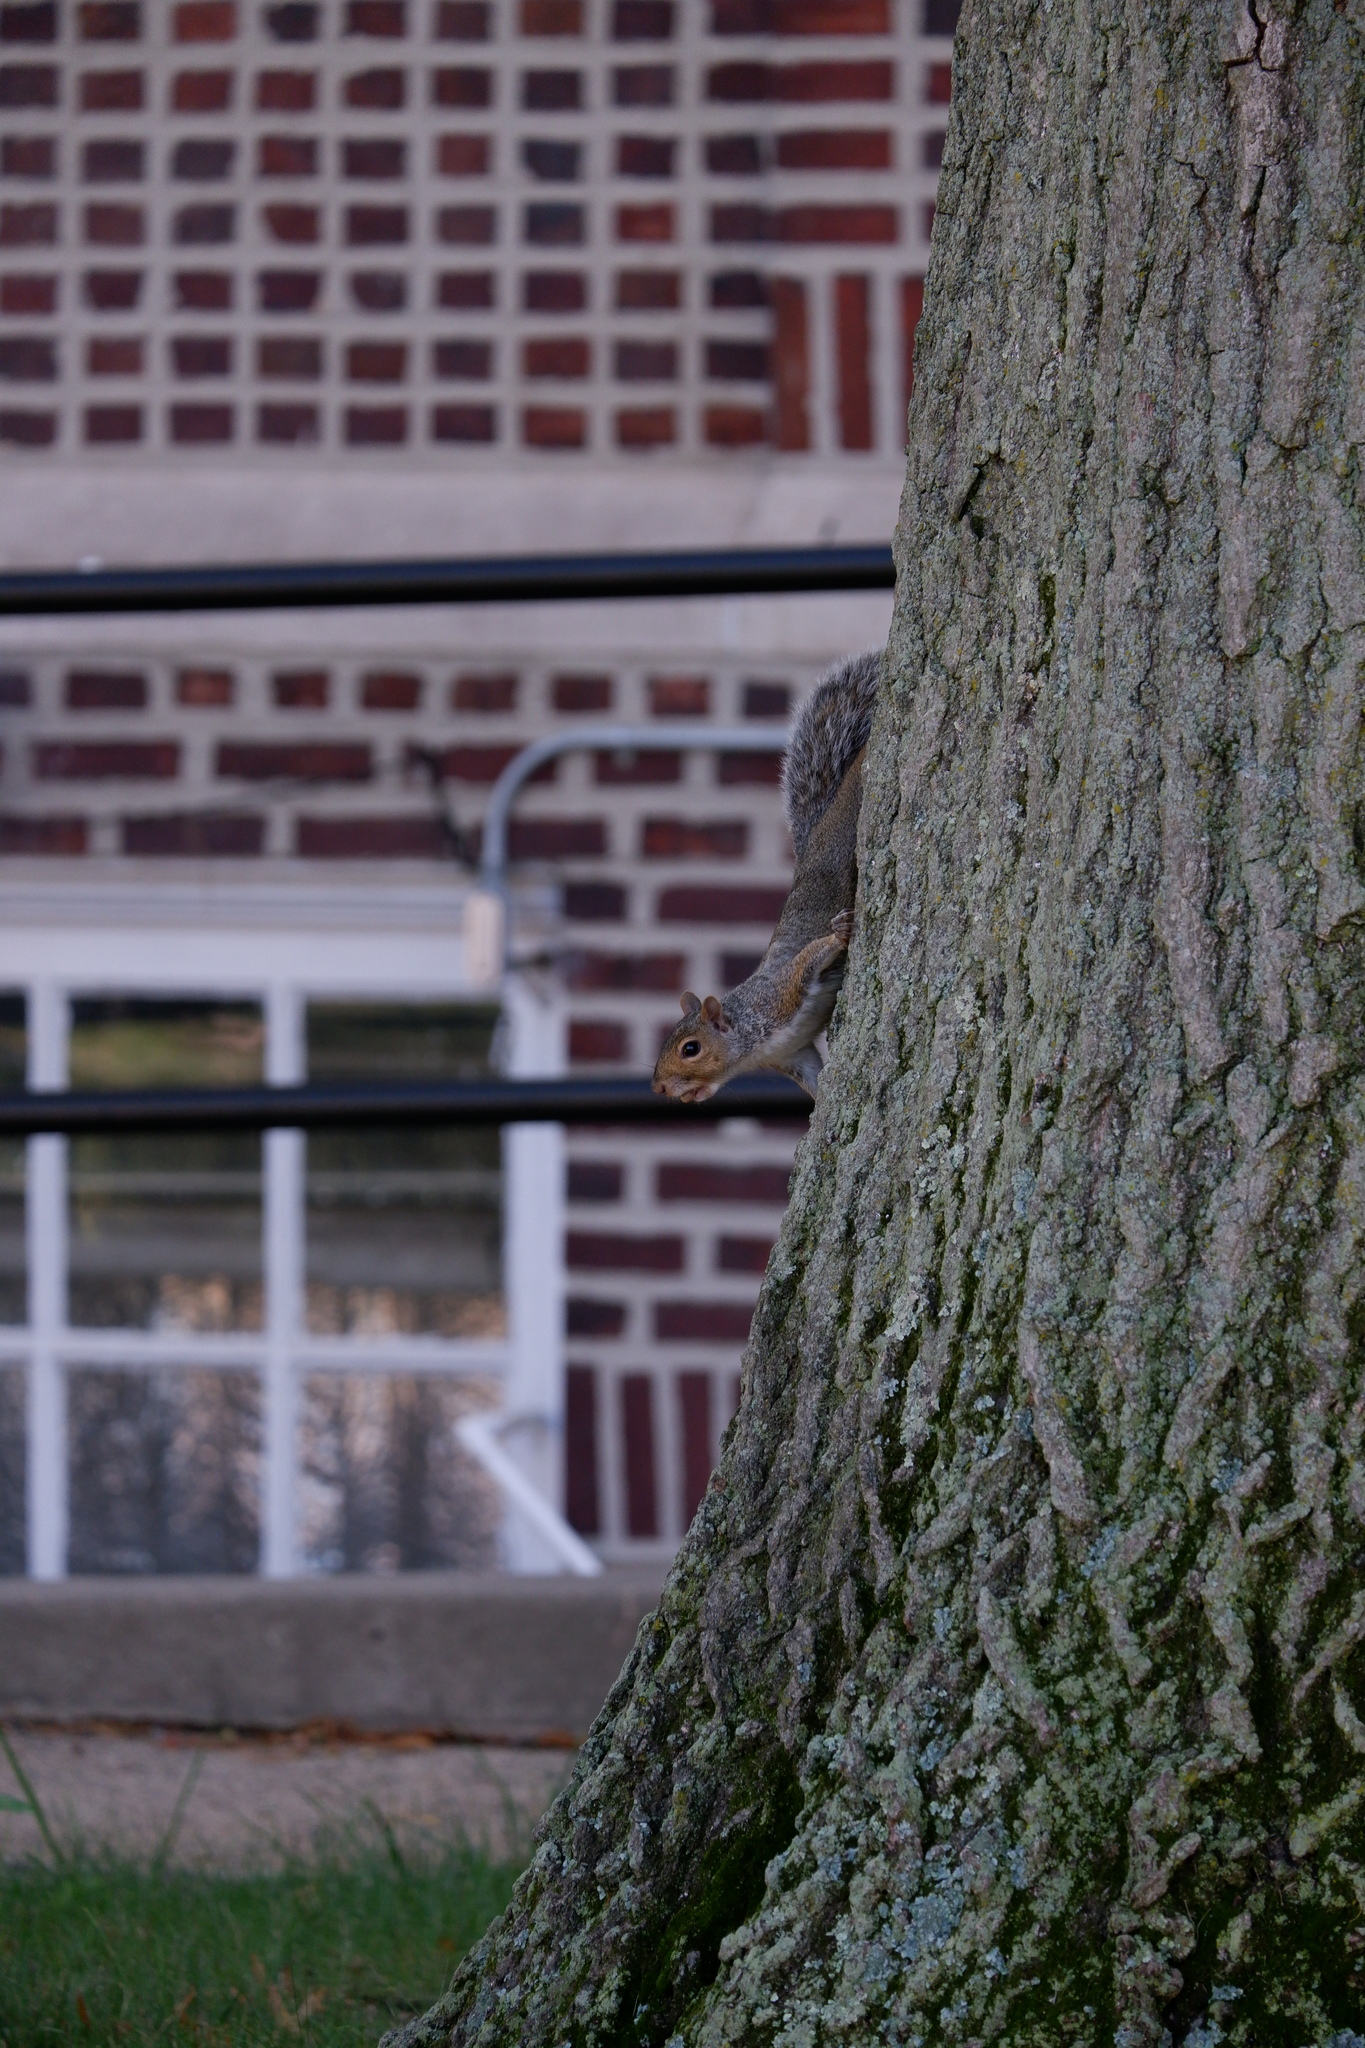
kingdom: Animalia
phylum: Chordata
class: Mammalia
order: Rodentia
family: Sciuridae
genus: Sciurus
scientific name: Sciurus carolinensis
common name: Eastern gray squirrel
